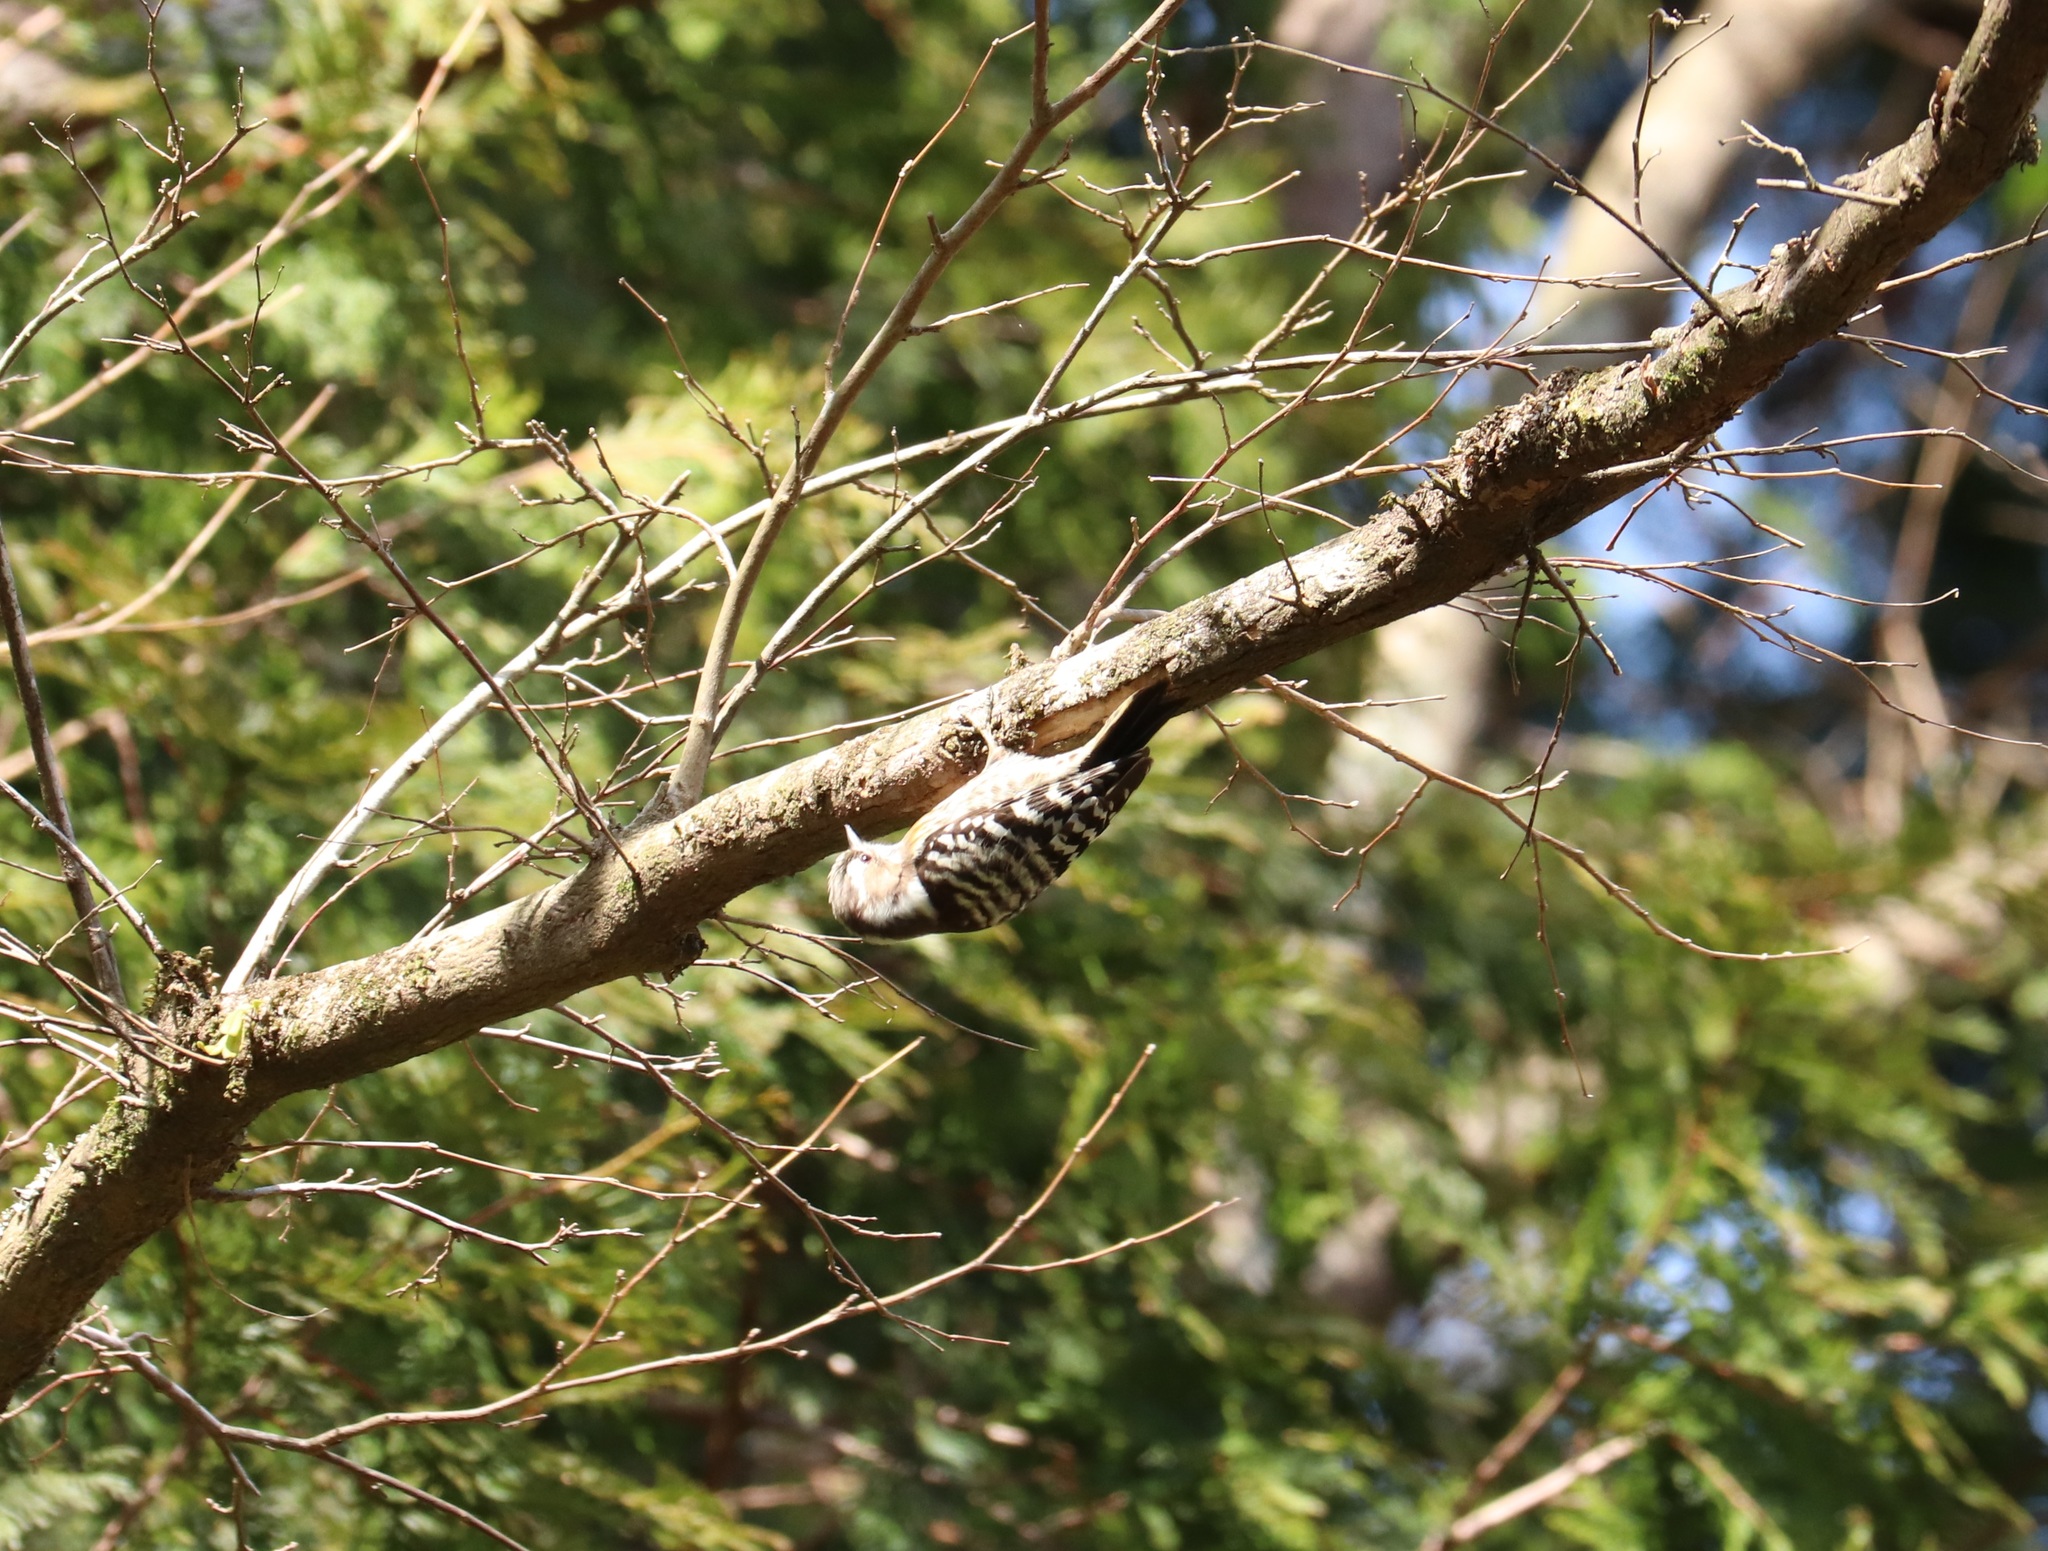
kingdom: Animalia
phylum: Chordata
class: Aves
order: Piciformes
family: Picidae
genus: Yungipicus
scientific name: Yungipicus kizuki
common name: Japanese pygmy woodpecker
